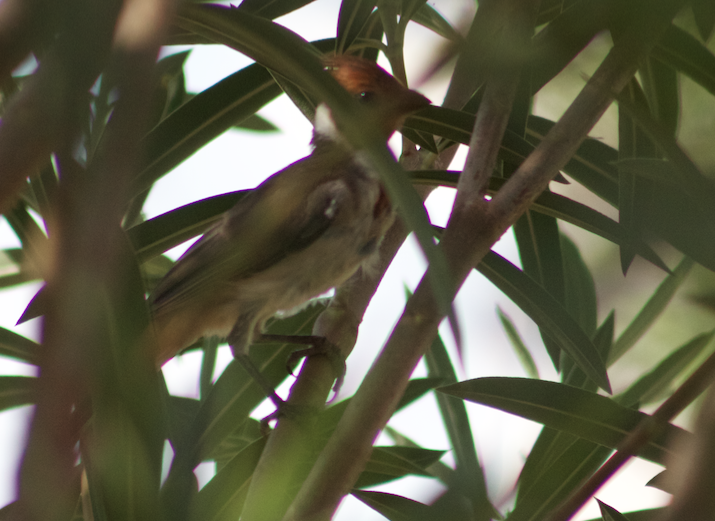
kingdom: Animalia
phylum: Chordata
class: Aves
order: Passeriformes
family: Thraupidae
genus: Paroaria
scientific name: Paroaria coronata
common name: Red-crested cardinal
